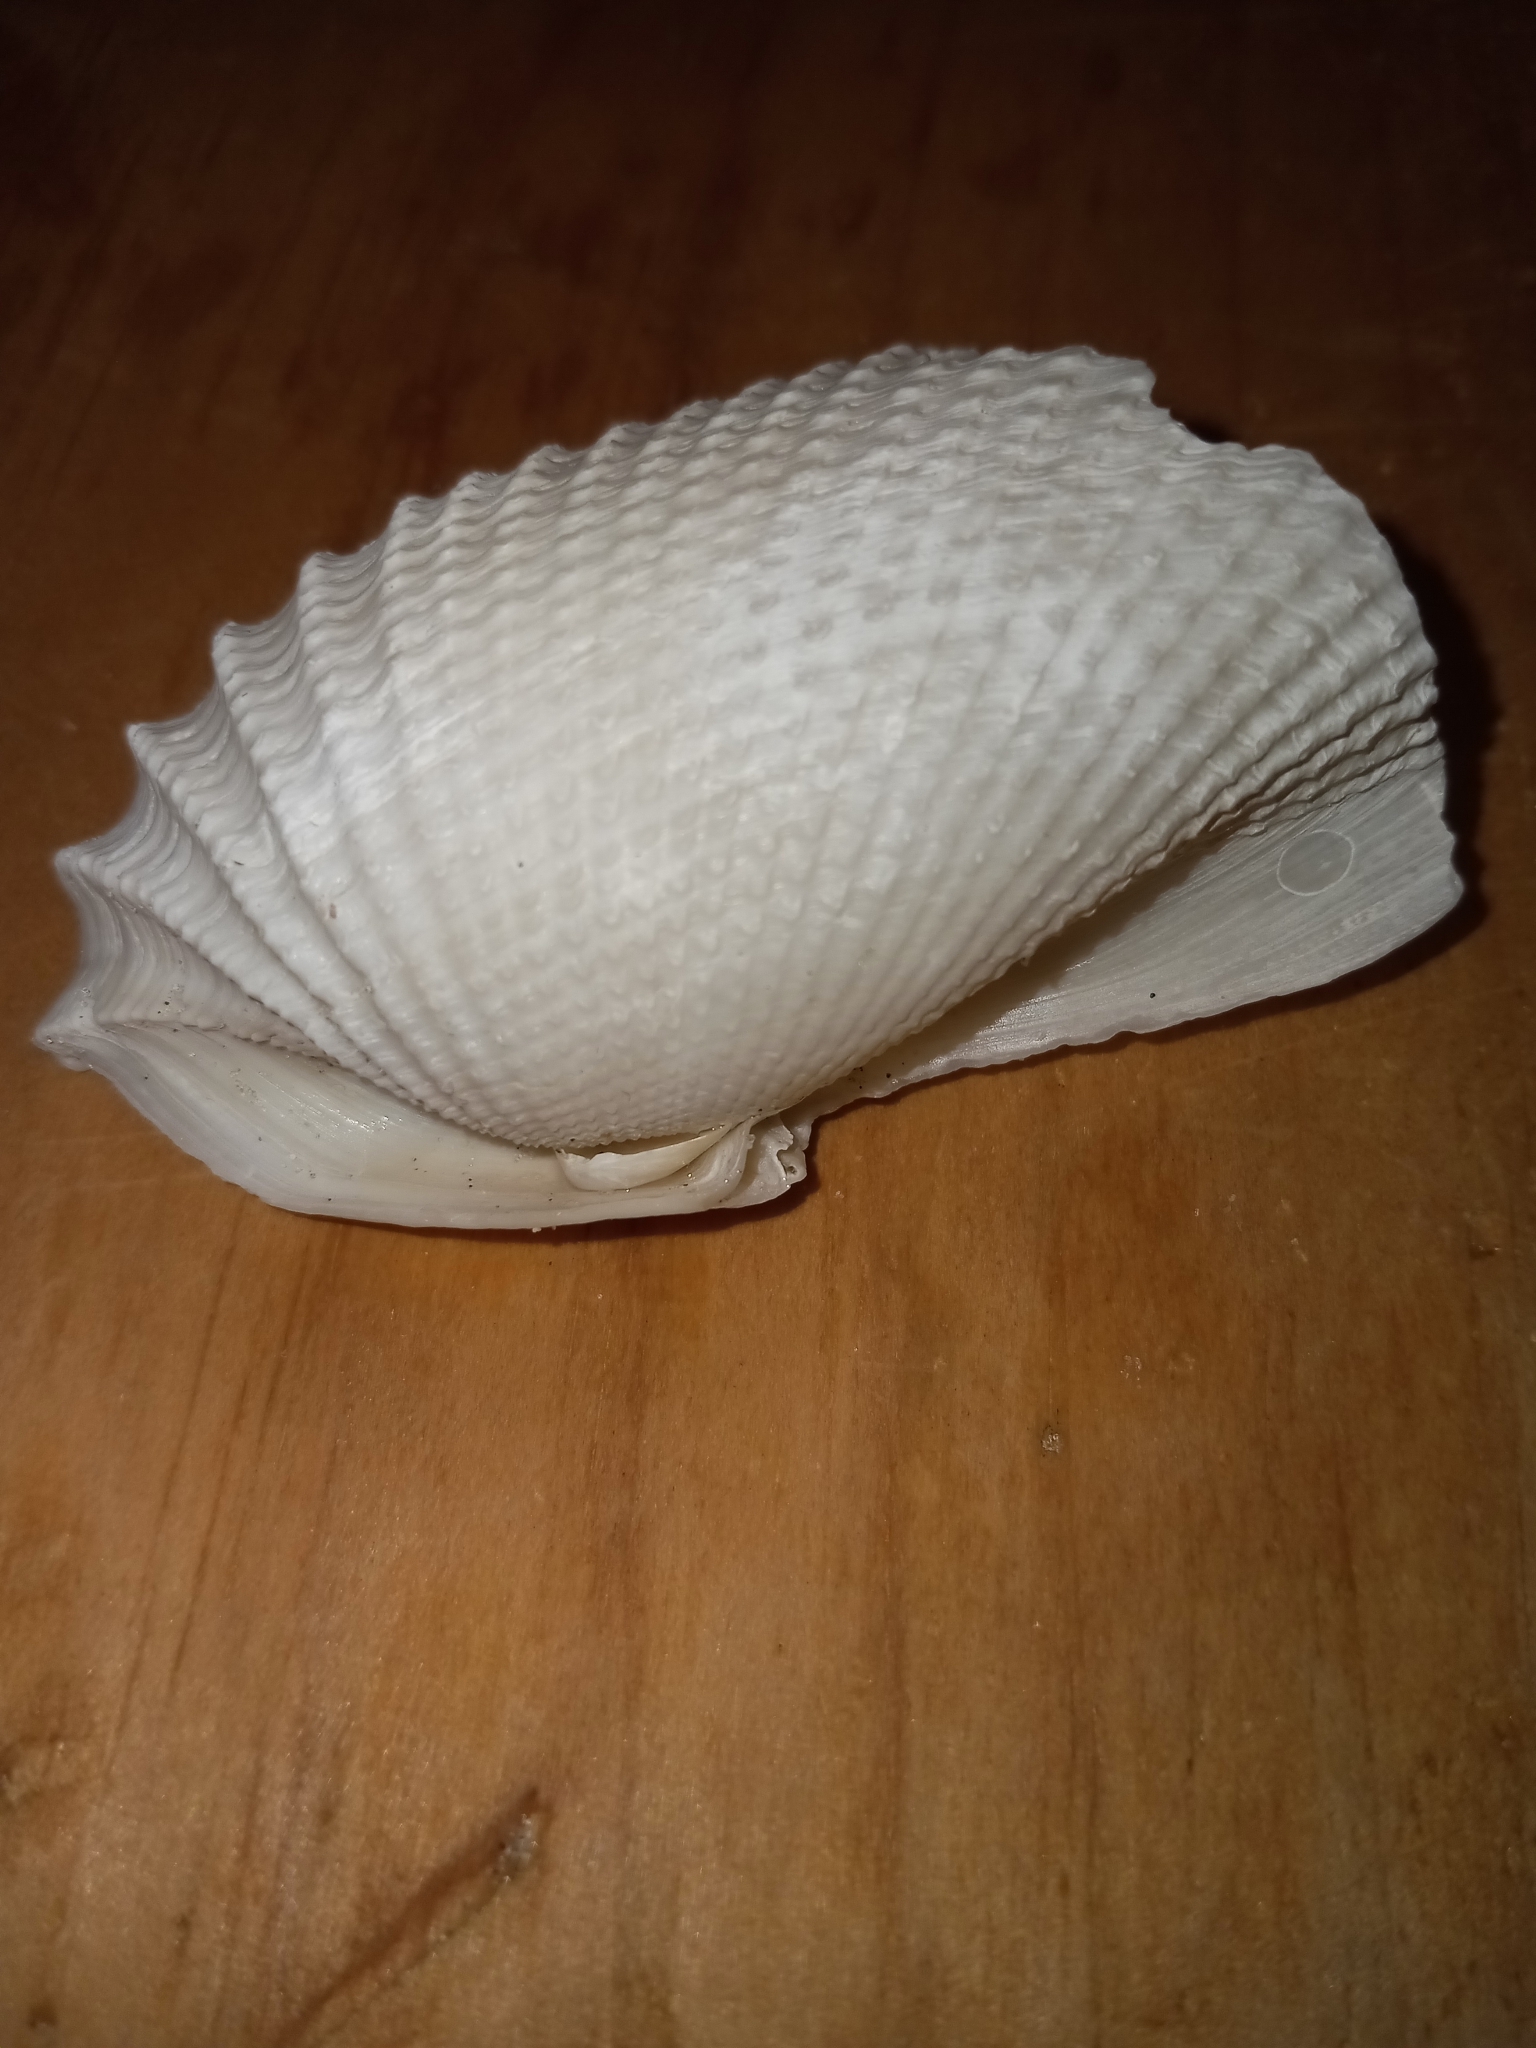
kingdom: Animalia
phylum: Mollusca
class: Bivalvia
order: Myida
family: Pholadidae
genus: Cyrtopleura
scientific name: Cyrtopleura costata
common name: Angel wing
